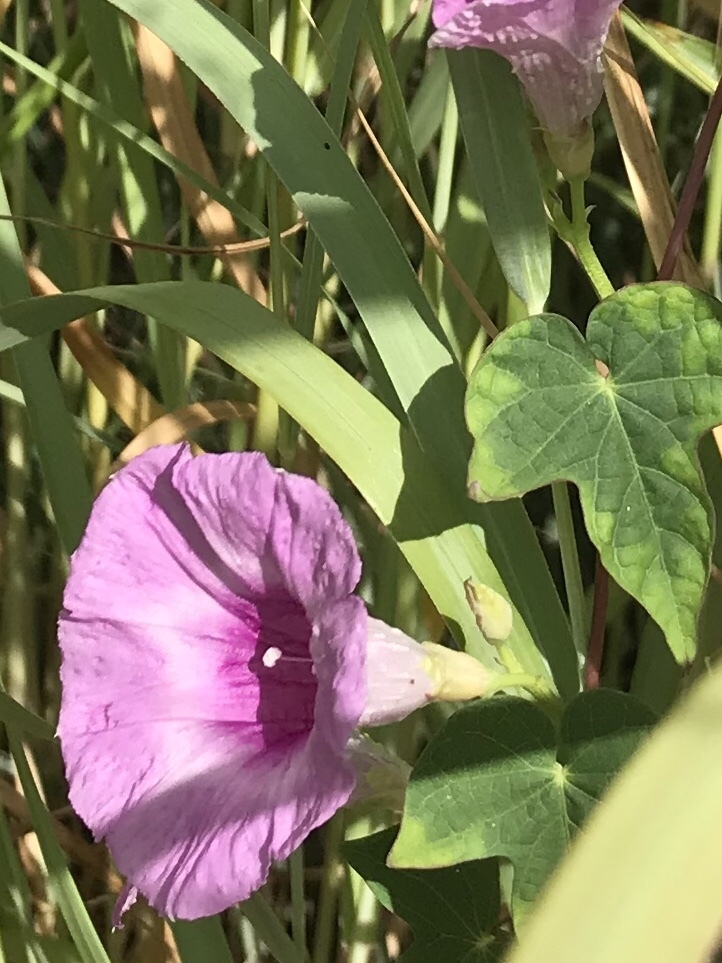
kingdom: Plantae
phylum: Tracheophyta
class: Magnoliopsida
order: Solanales
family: Convolvulaceae
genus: Ipomoea
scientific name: Ipomoea cordatotriloba
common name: Cotton morning glory
